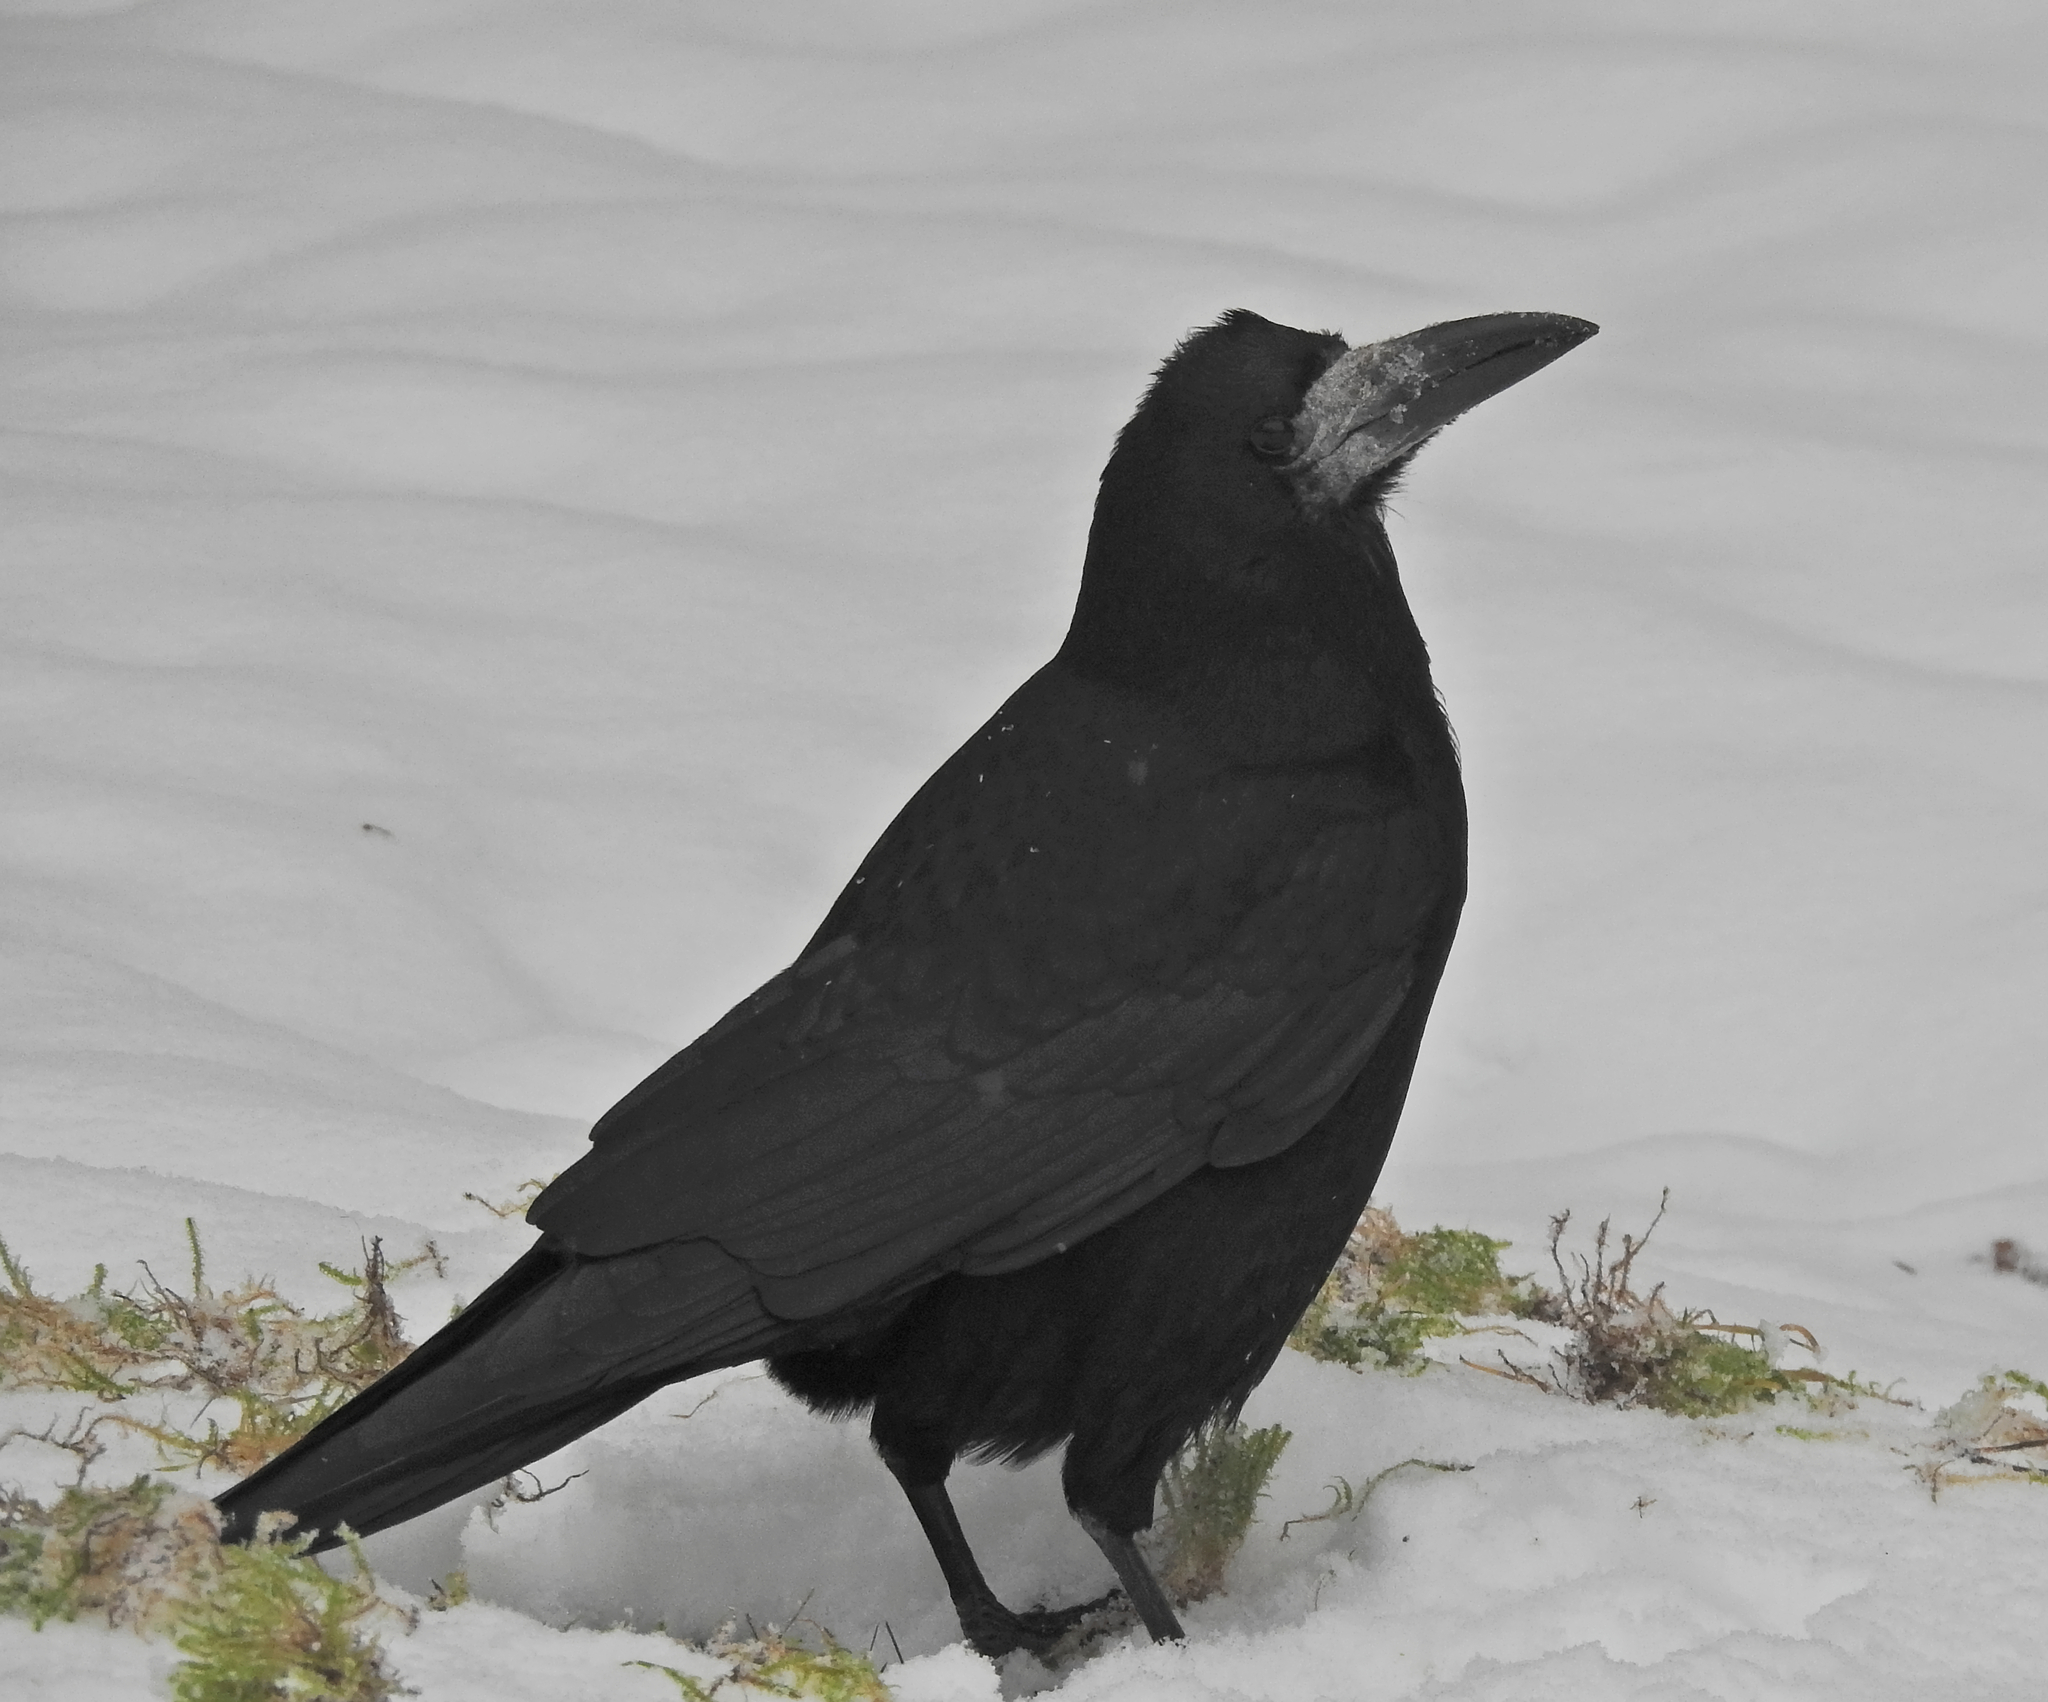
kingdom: Animalia
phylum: Chordata
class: Aves
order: Passeriformes
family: Corvidae
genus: Corvus
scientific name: Corvus frugilegus
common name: Rook
